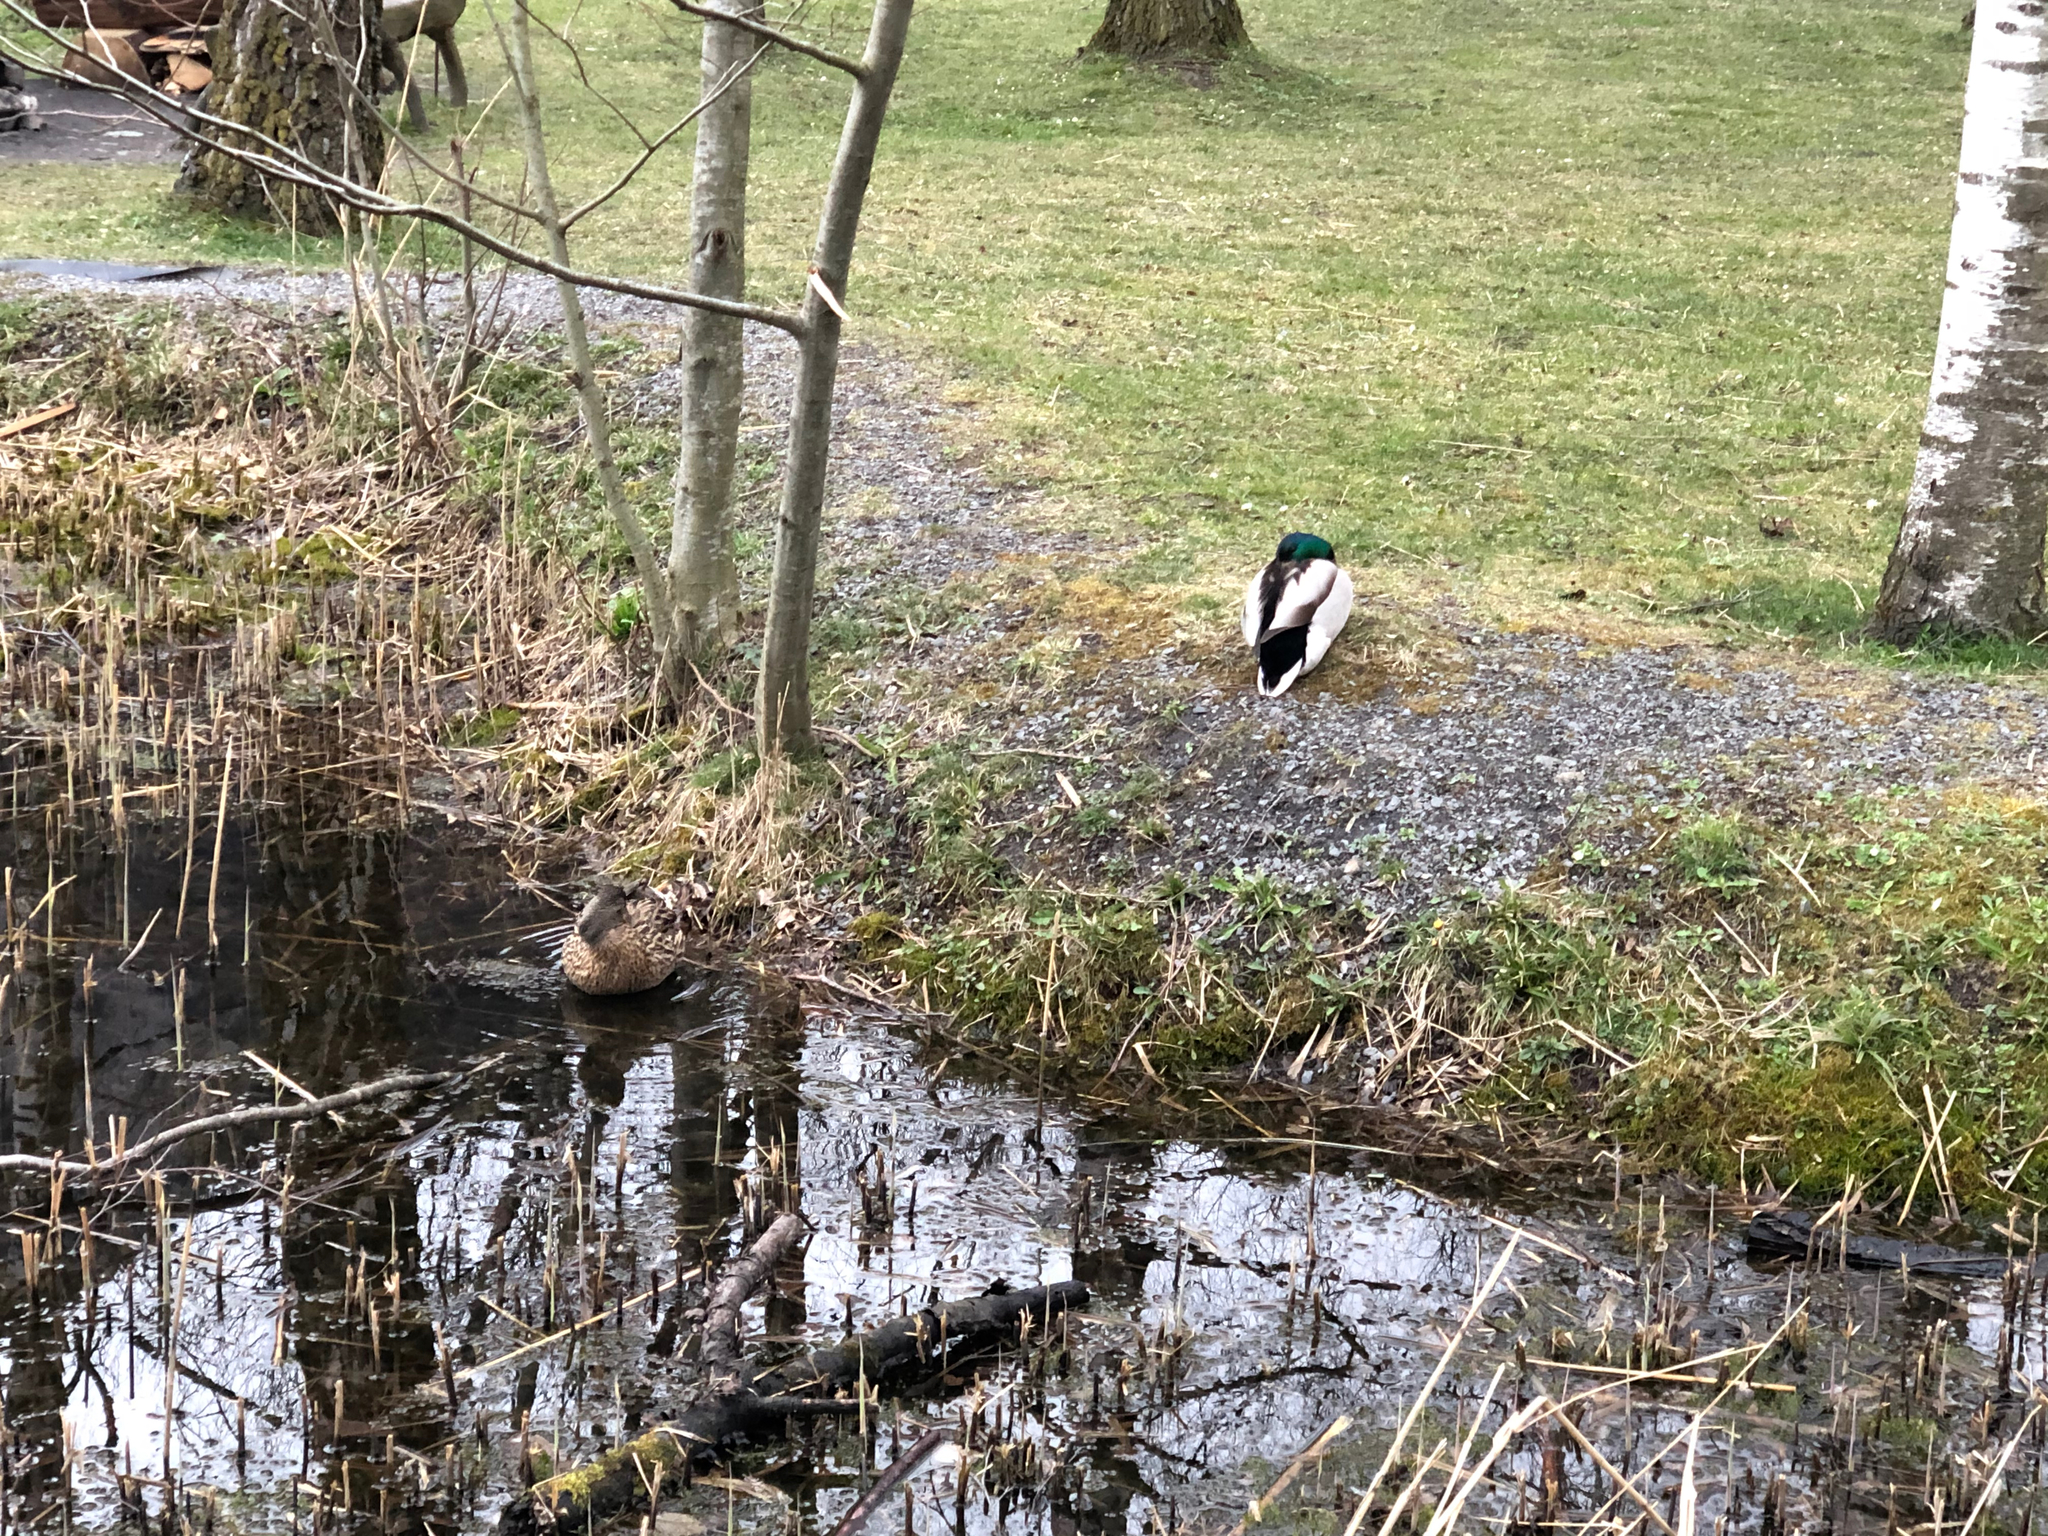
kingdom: Animalia
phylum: Chordata
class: Aves
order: Anseriformes
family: Anatidae
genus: Anas
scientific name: Anas platyrhynchos
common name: Mallard
